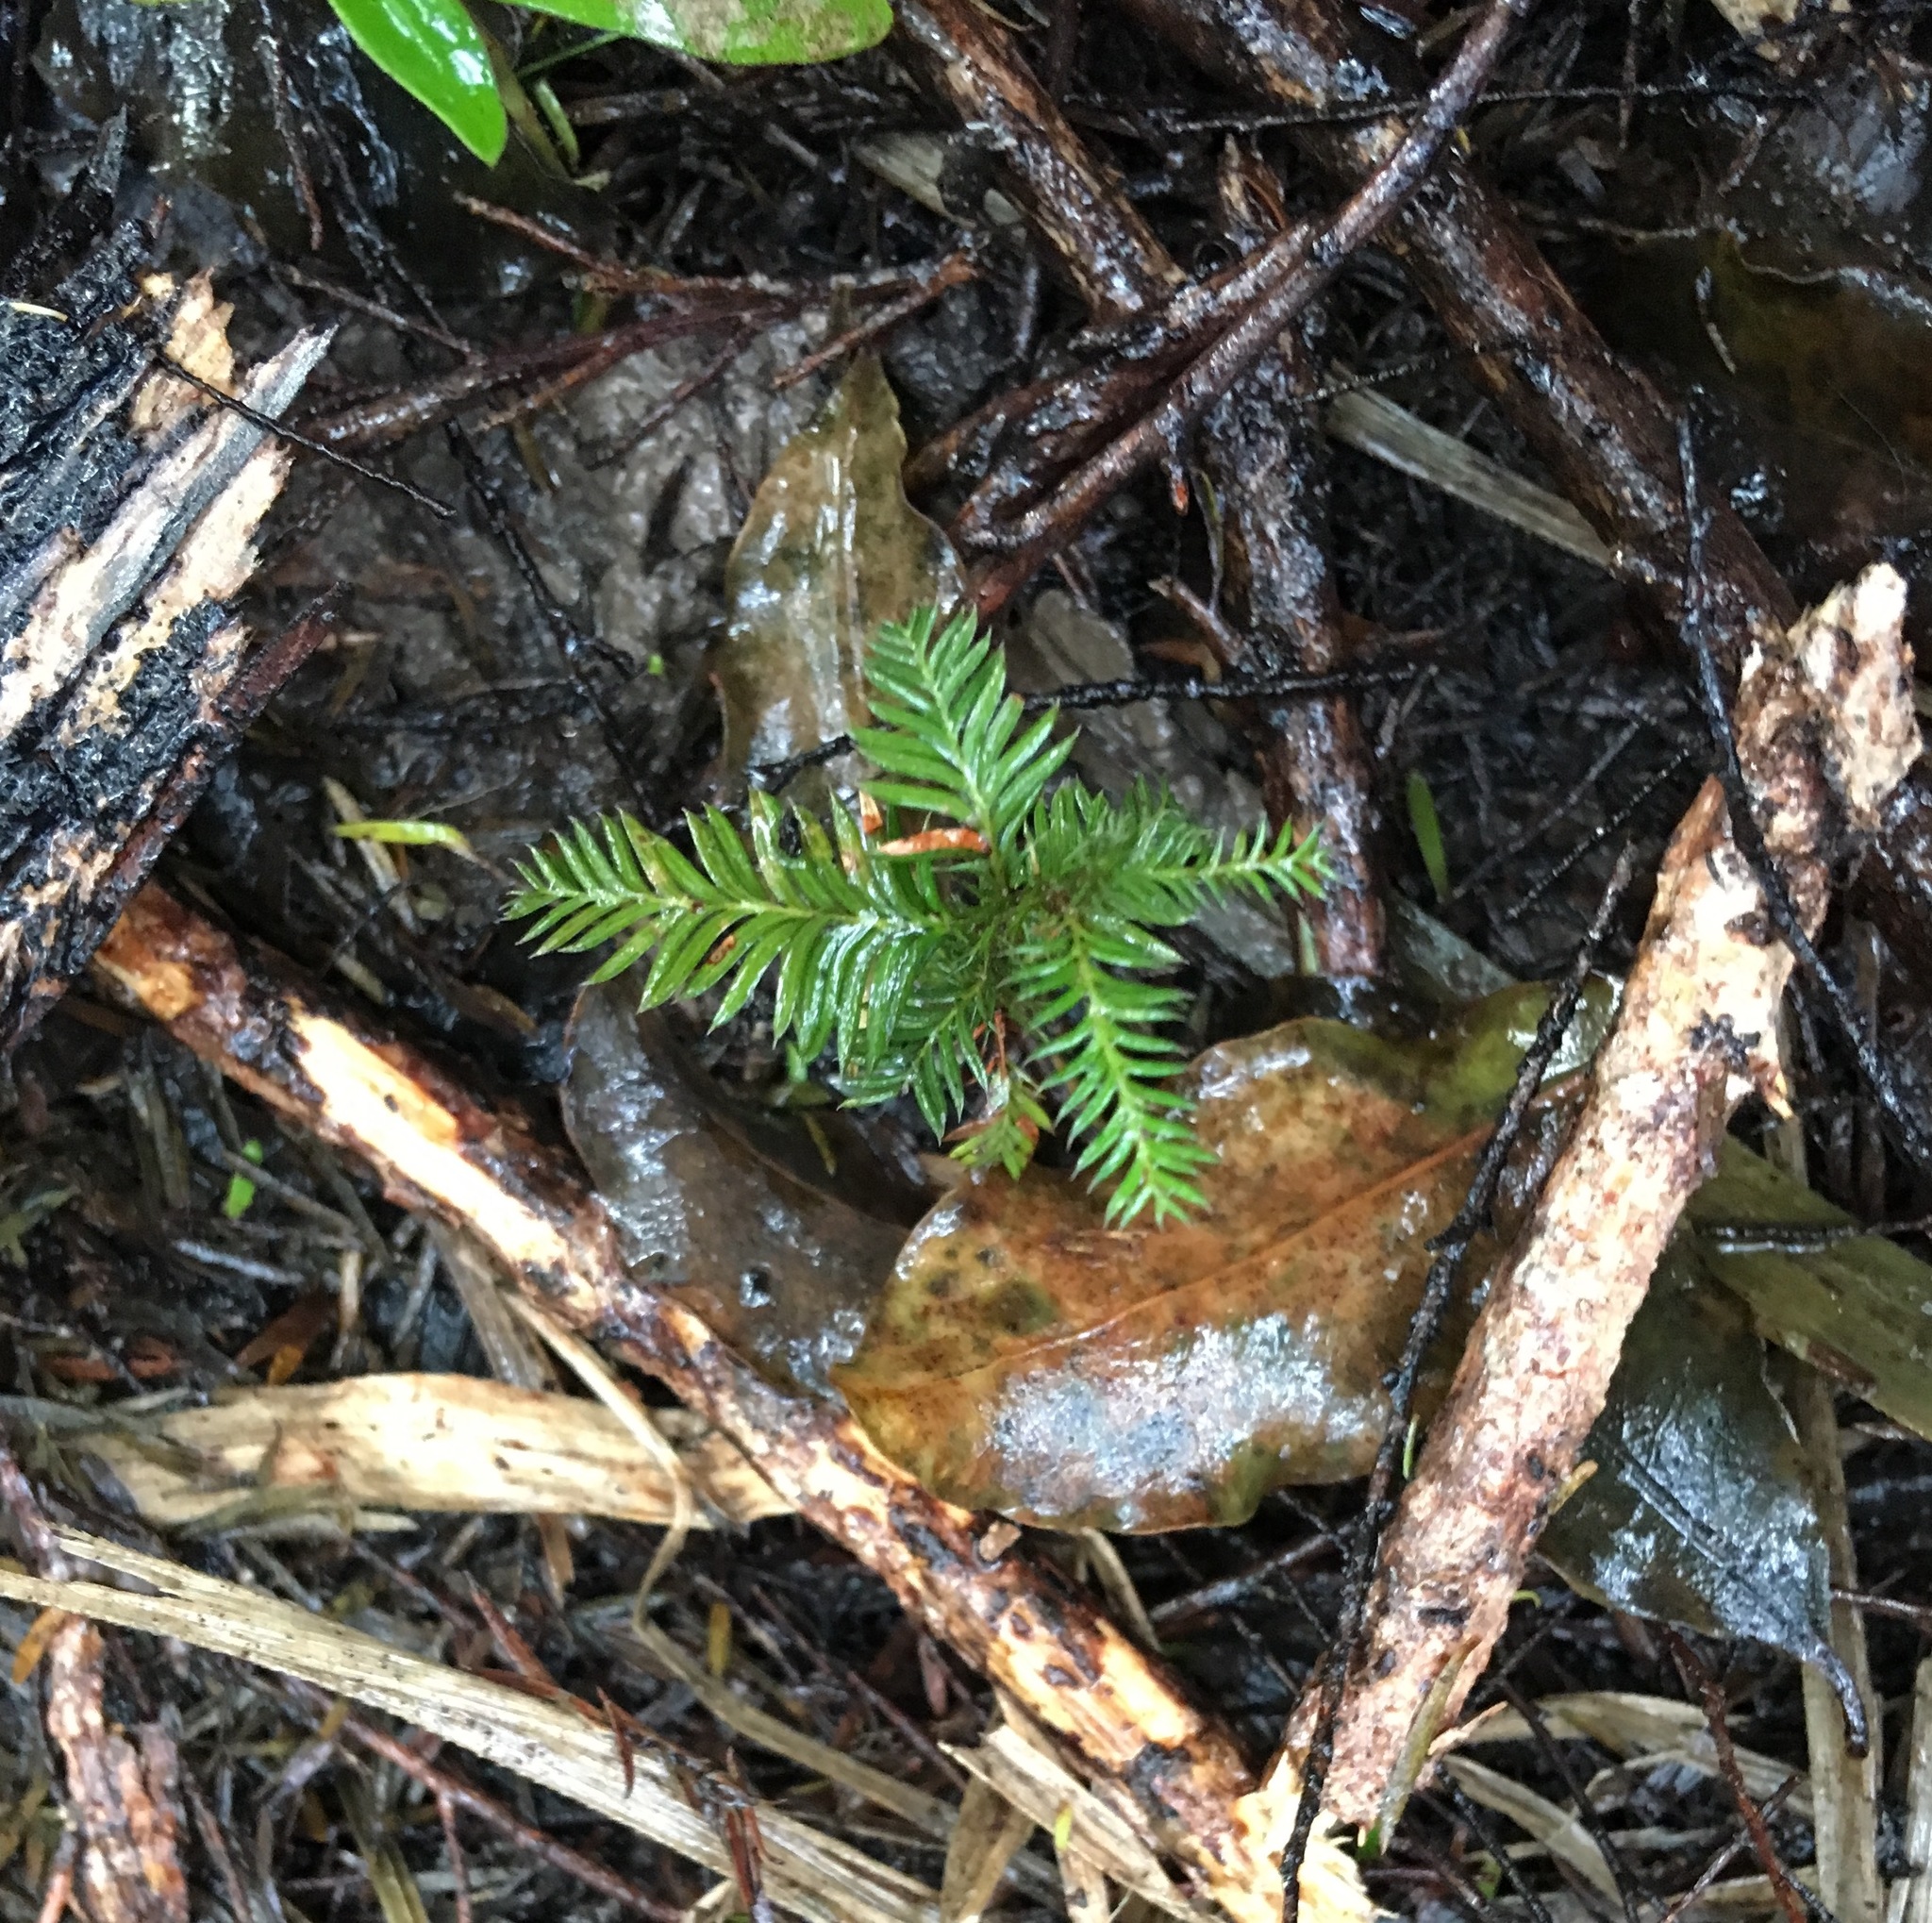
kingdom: Plantae
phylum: Tracheophyta
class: Pinopsida
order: Pinales
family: Podocarpaceae
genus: Dacrycarpus
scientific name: Dacrycarpus dacrydioides
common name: White pine
